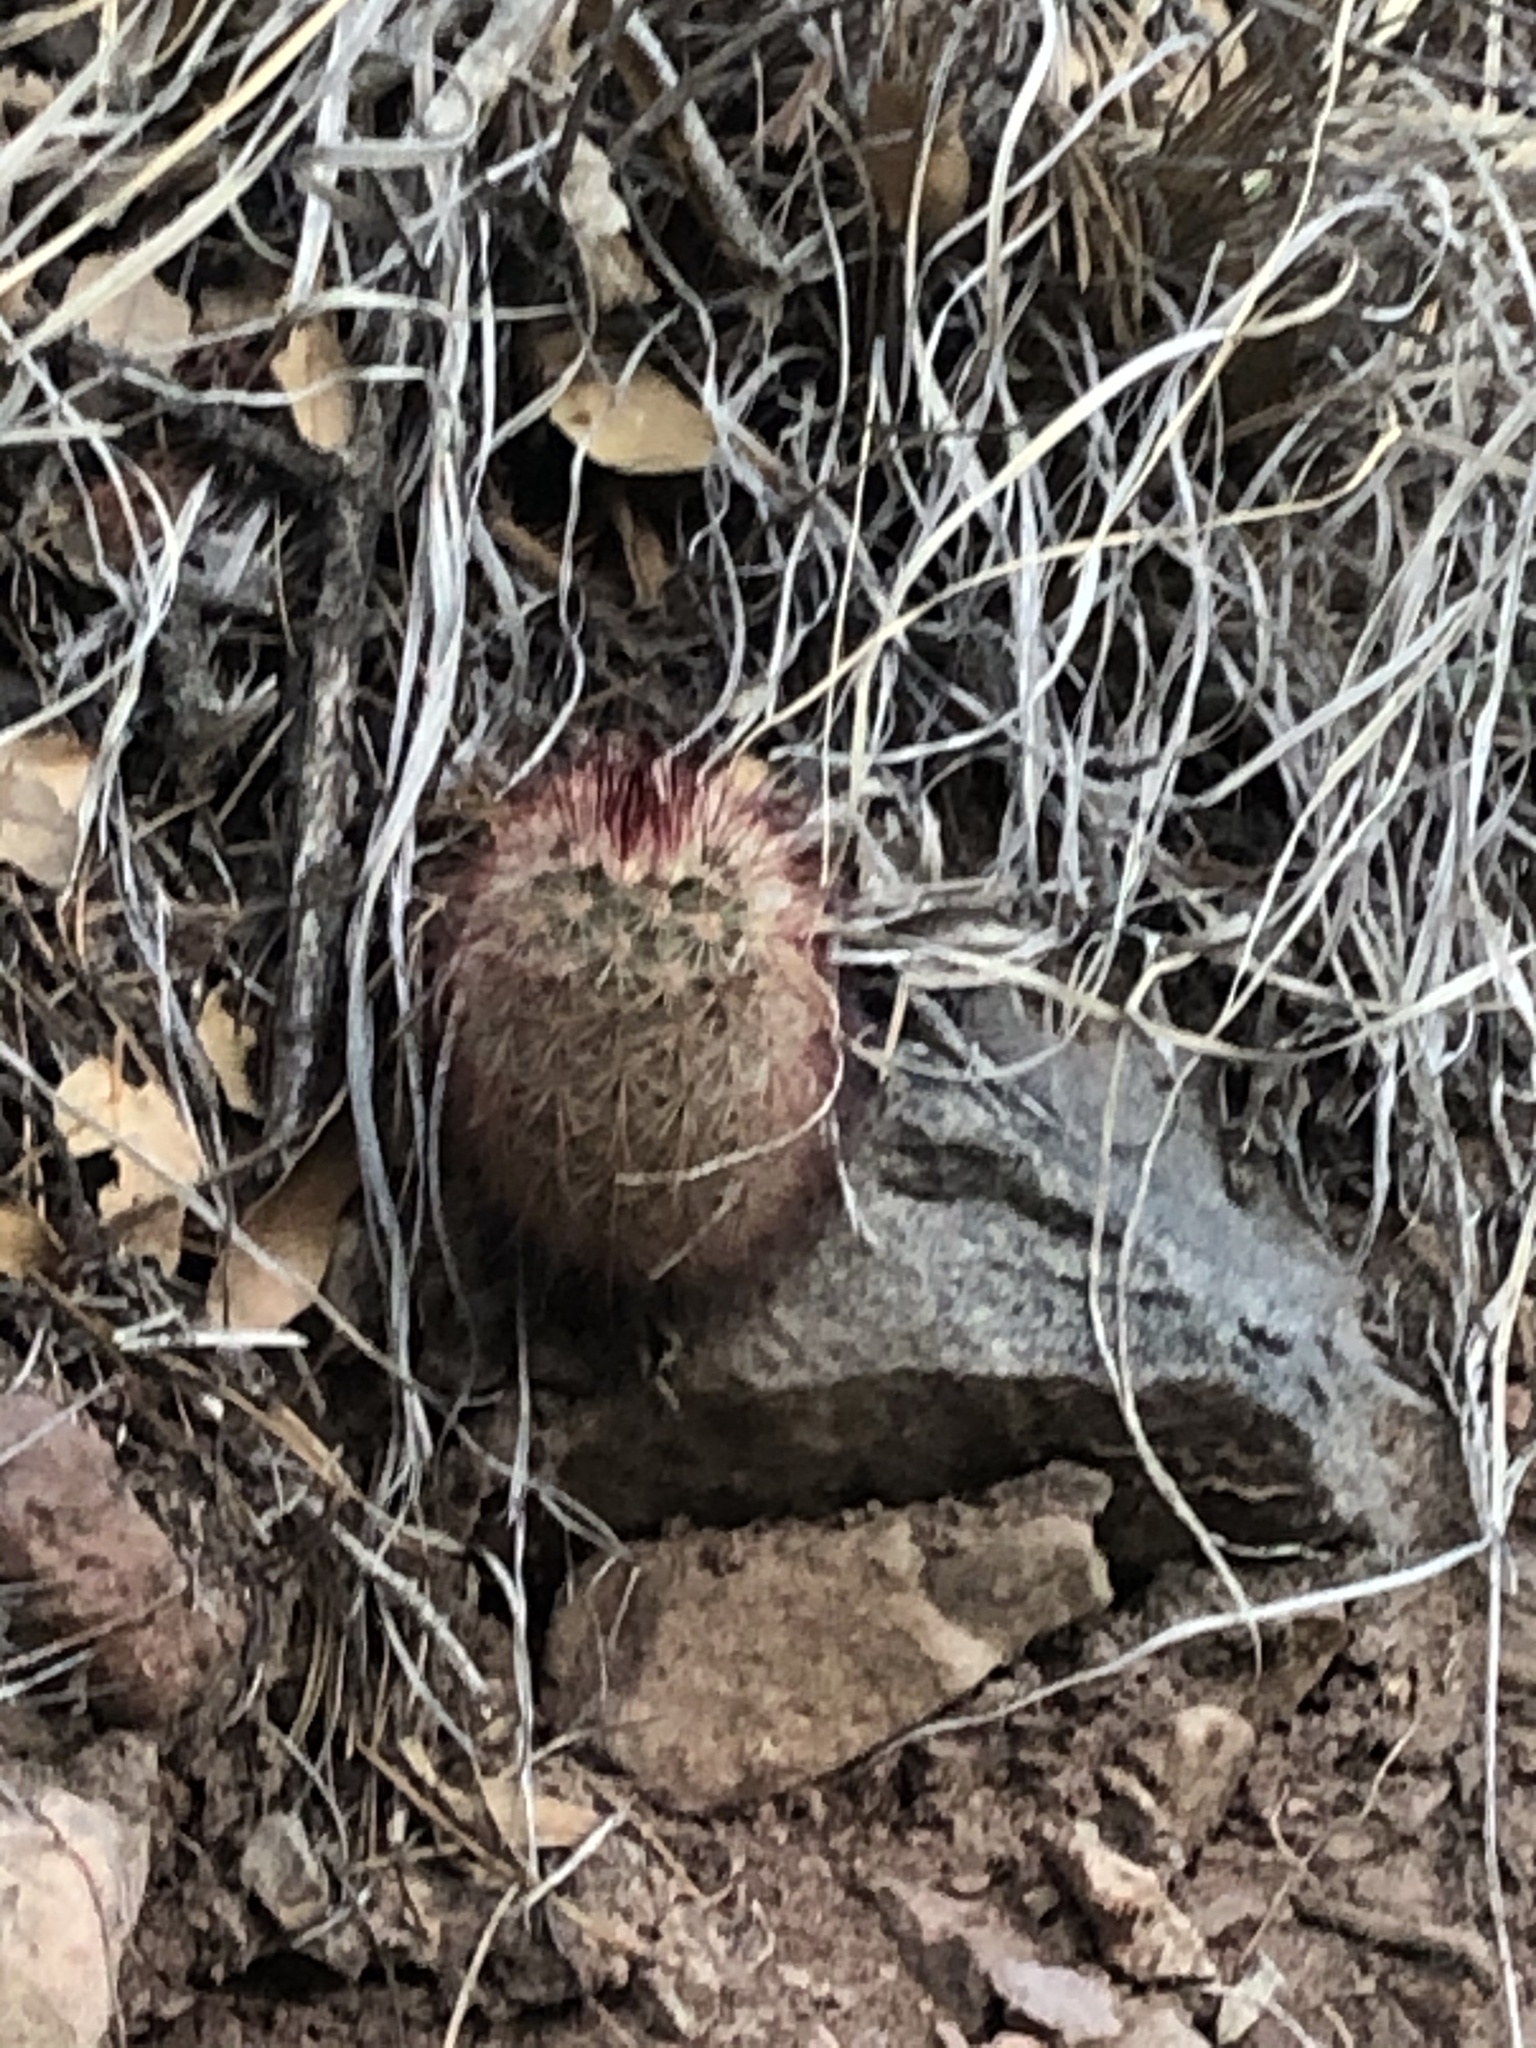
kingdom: Plantae
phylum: Tracheophyta
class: Magnoliopsida
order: Caryophyllales
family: Cactaceae
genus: Echinocereus
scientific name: Echinocereus russanthus
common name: Brownspine hedgehog cactus
